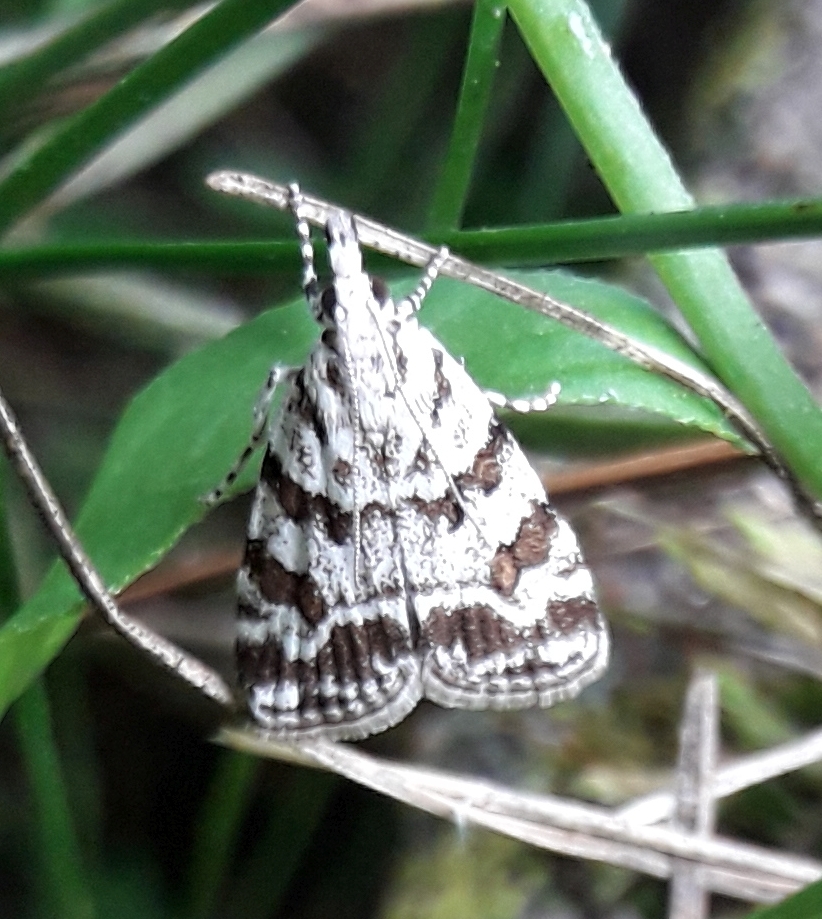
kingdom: Animalia
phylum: Arthropoda
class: Insecta
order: Lepidoptera
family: Crambidae
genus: Scoparia
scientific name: Scoparia pyralella
